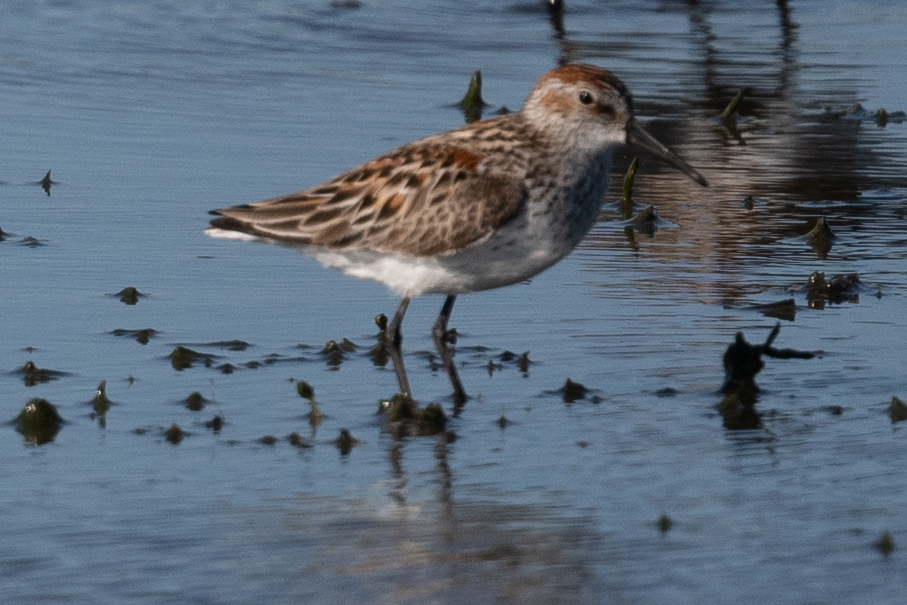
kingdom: Animalia
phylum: Chordata
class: Aves
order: Charadriiformes
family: Scolopacidae
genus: Calidris
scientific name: Calidris mauri
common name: Western sandpiper
